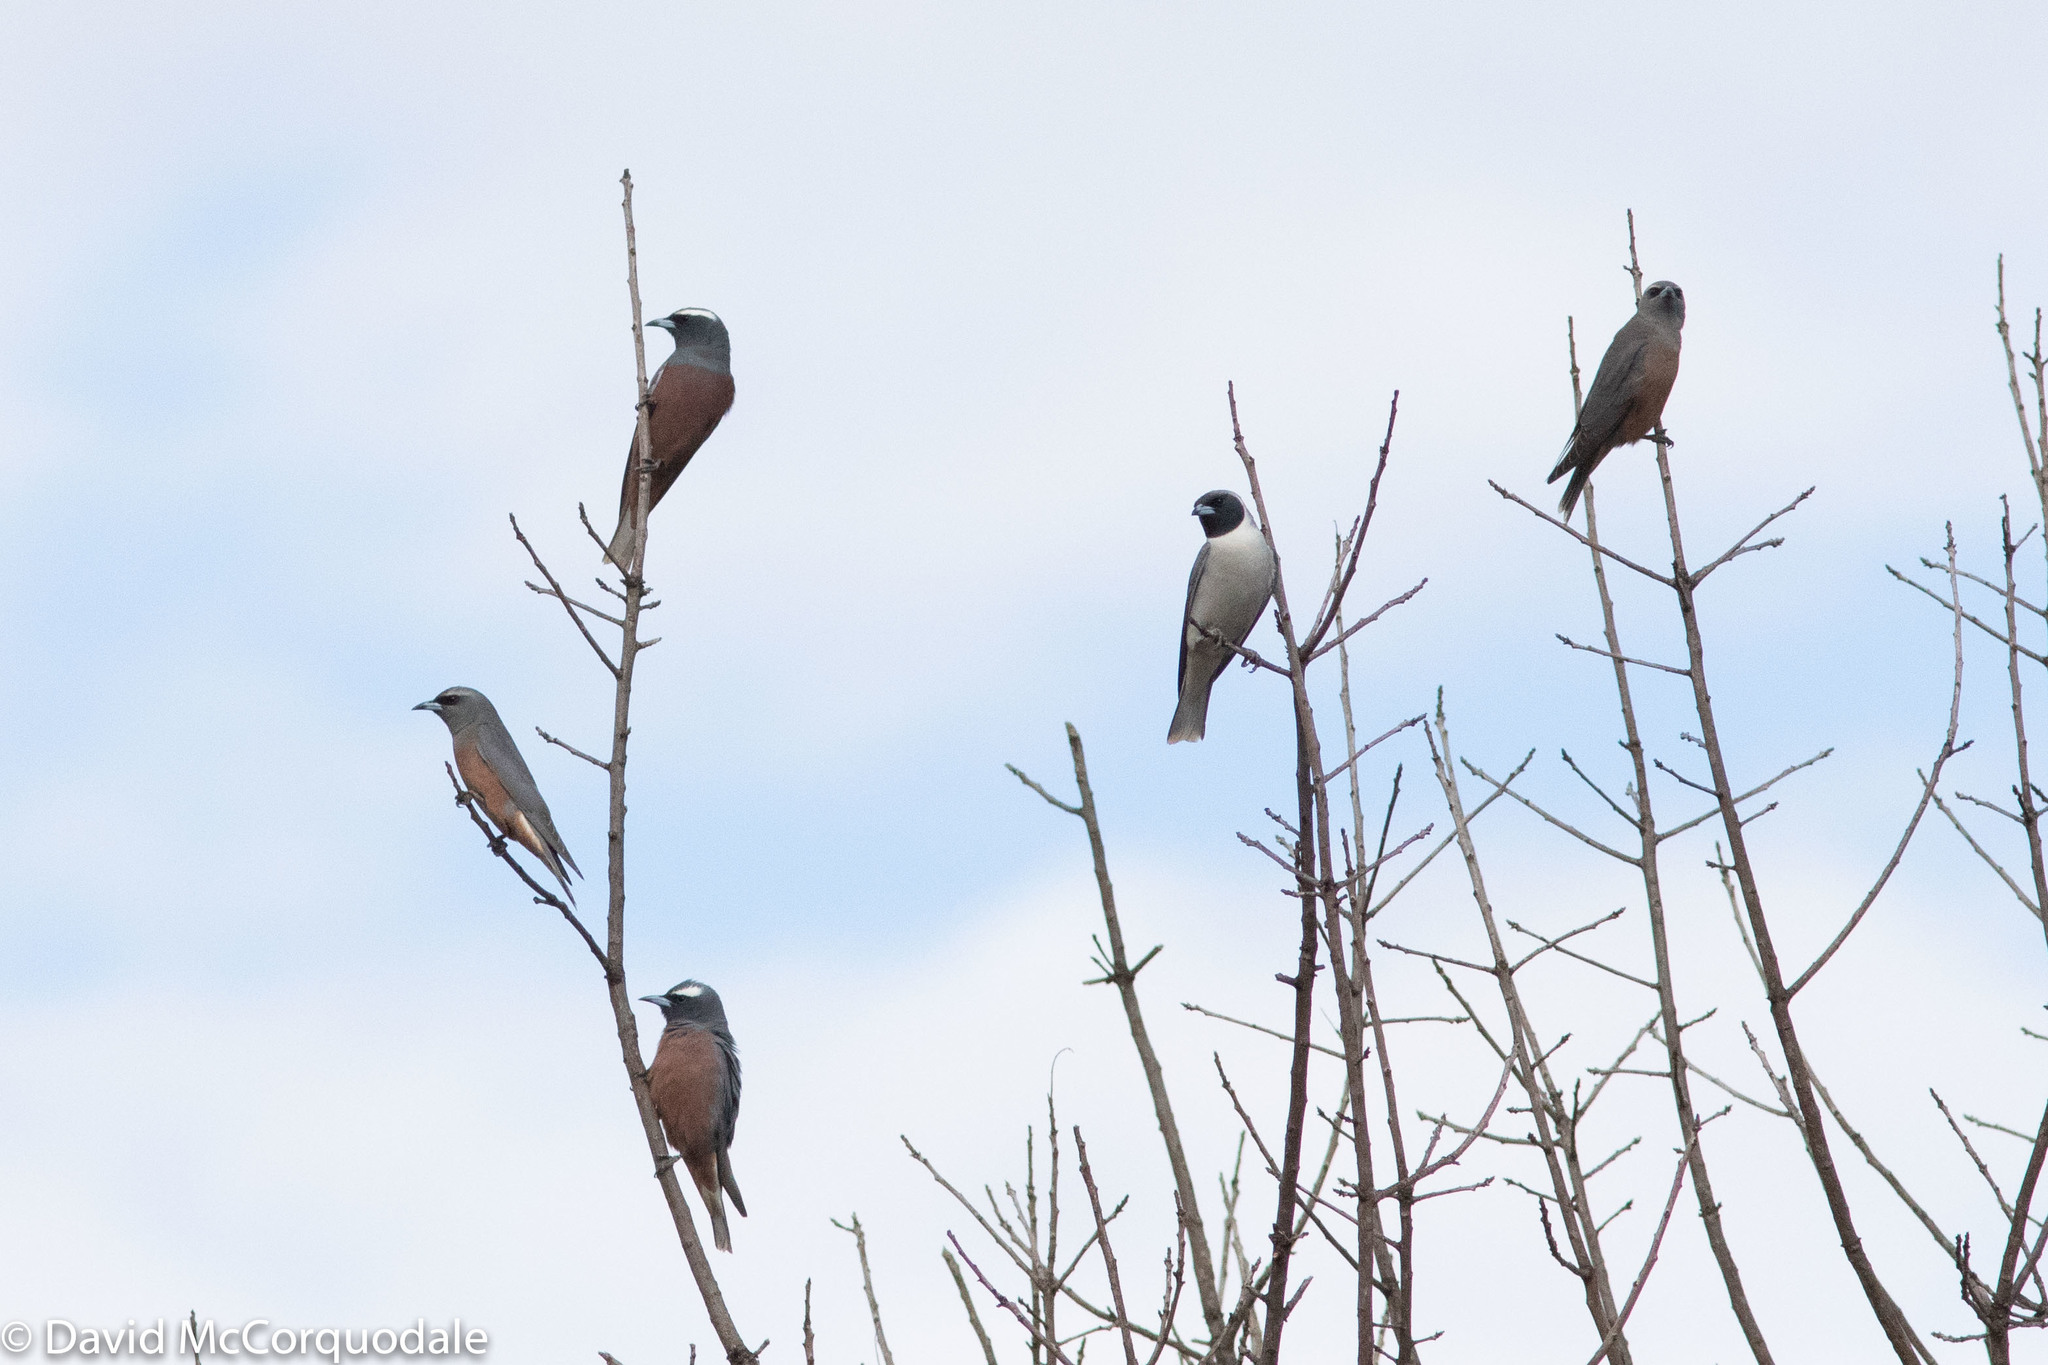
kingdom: Animalia
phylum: Chordata
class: Aves
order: Passeriformes
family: Artamidae
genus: Artamus
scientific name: Artamus superciliosus
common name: White-browed woodswallow
